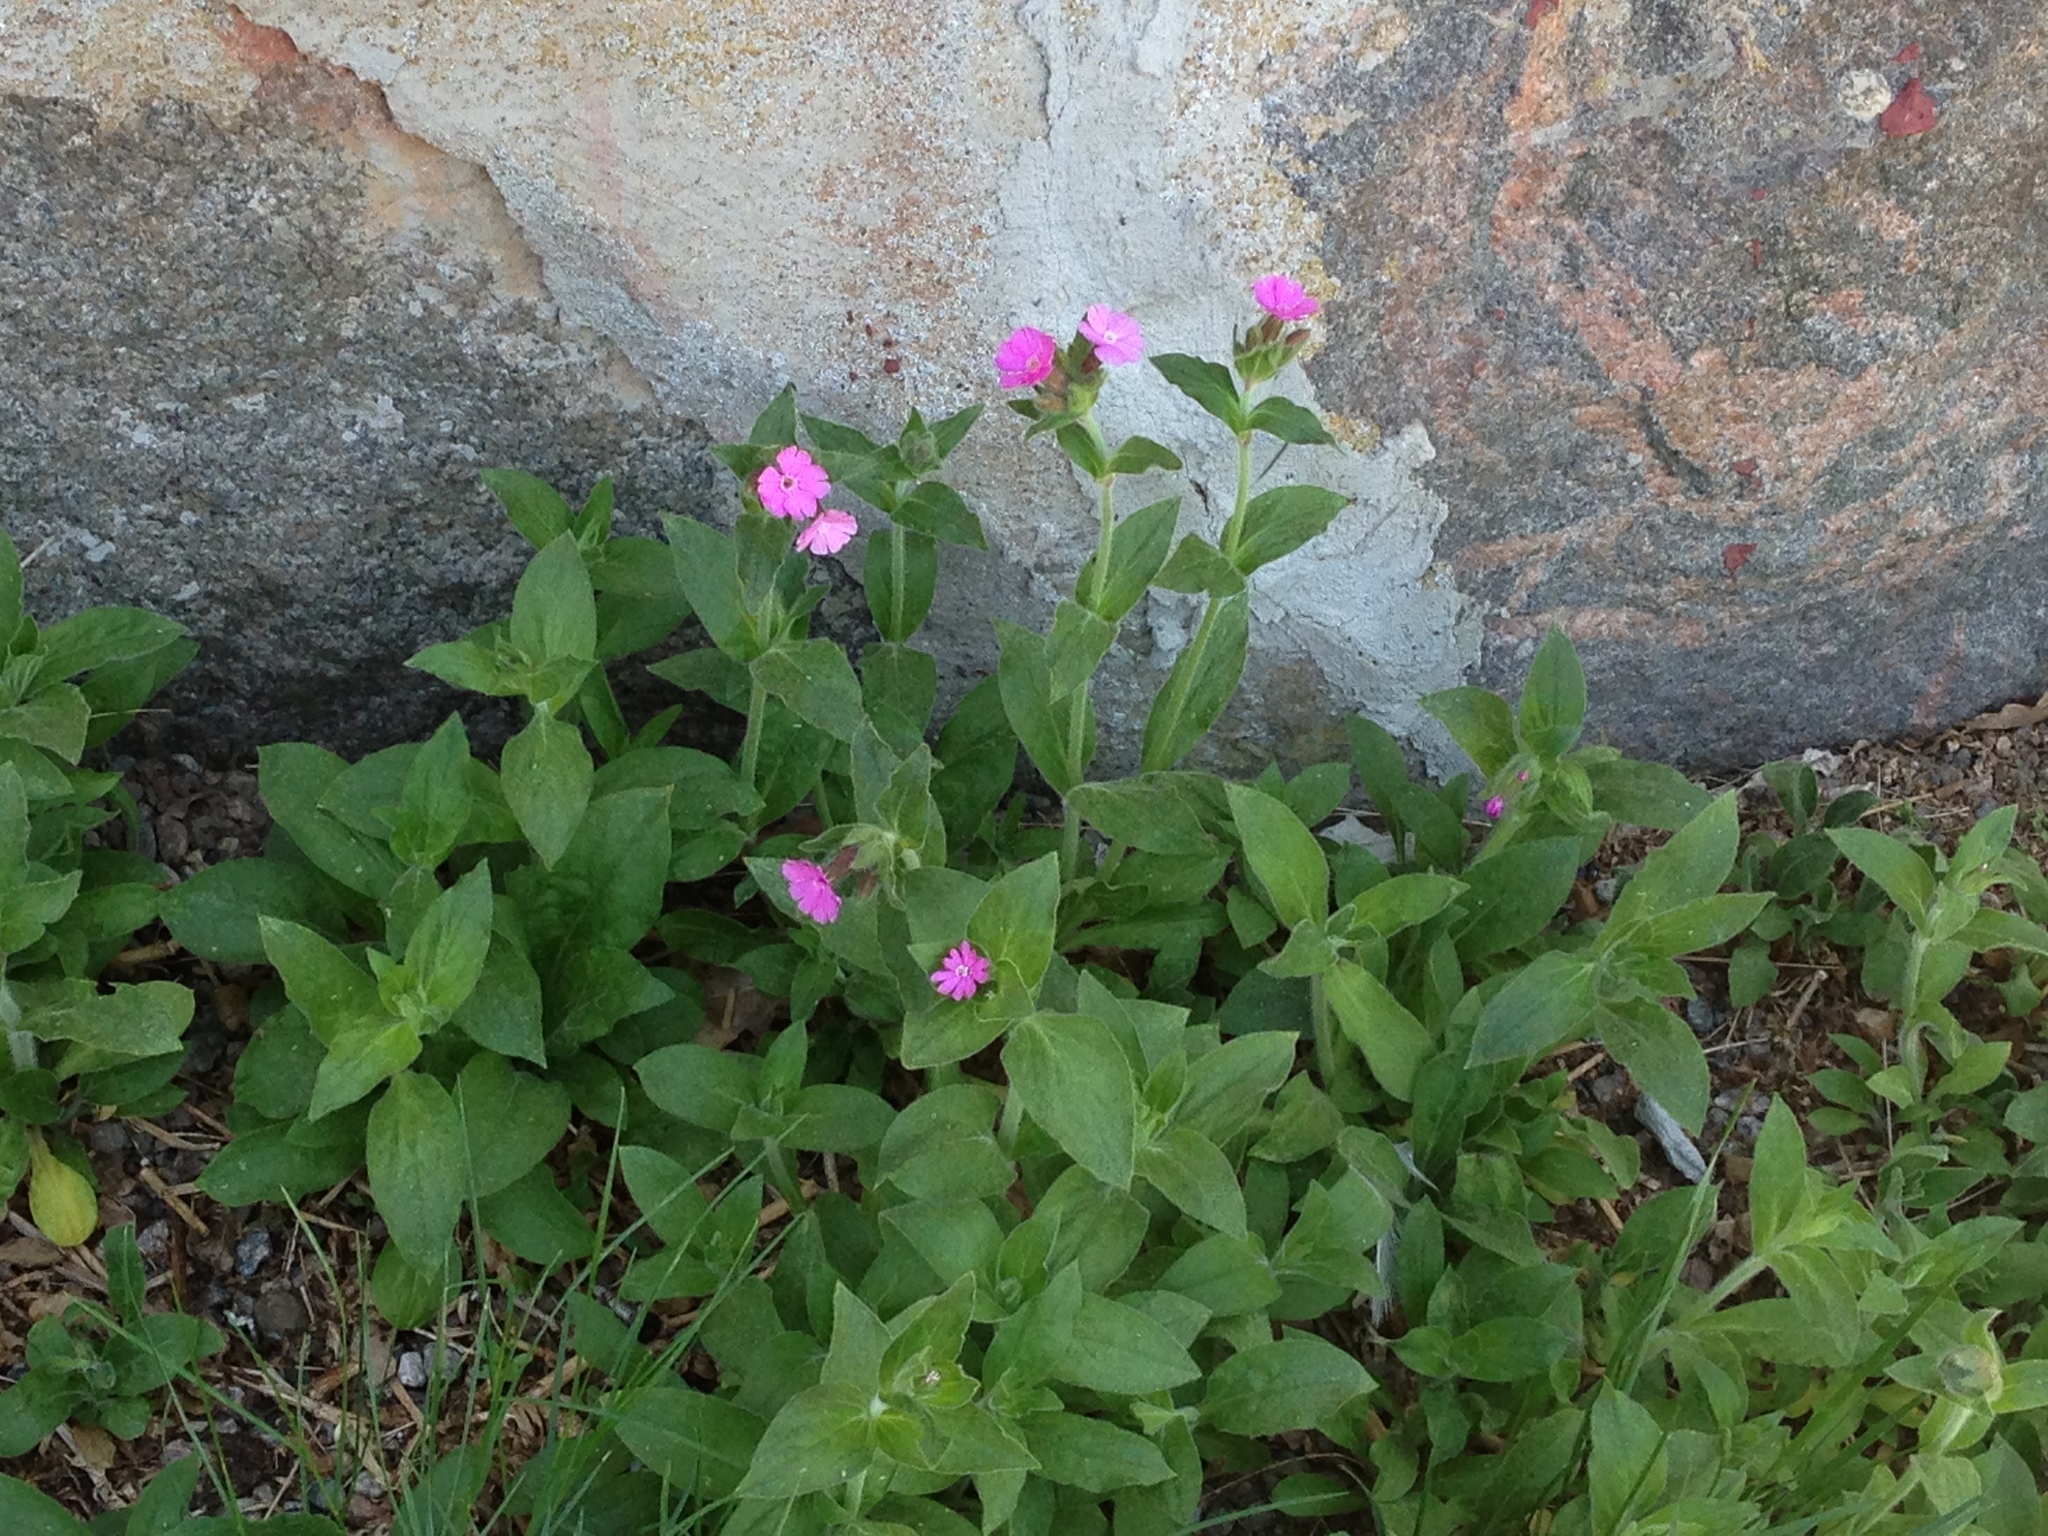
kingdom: Plantae
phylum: Tracheophyta
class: Magnoliopsida
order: Caryophyllales
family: Caryophyllaceae
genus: Silene
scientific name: Silene dioica
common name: Red campion
